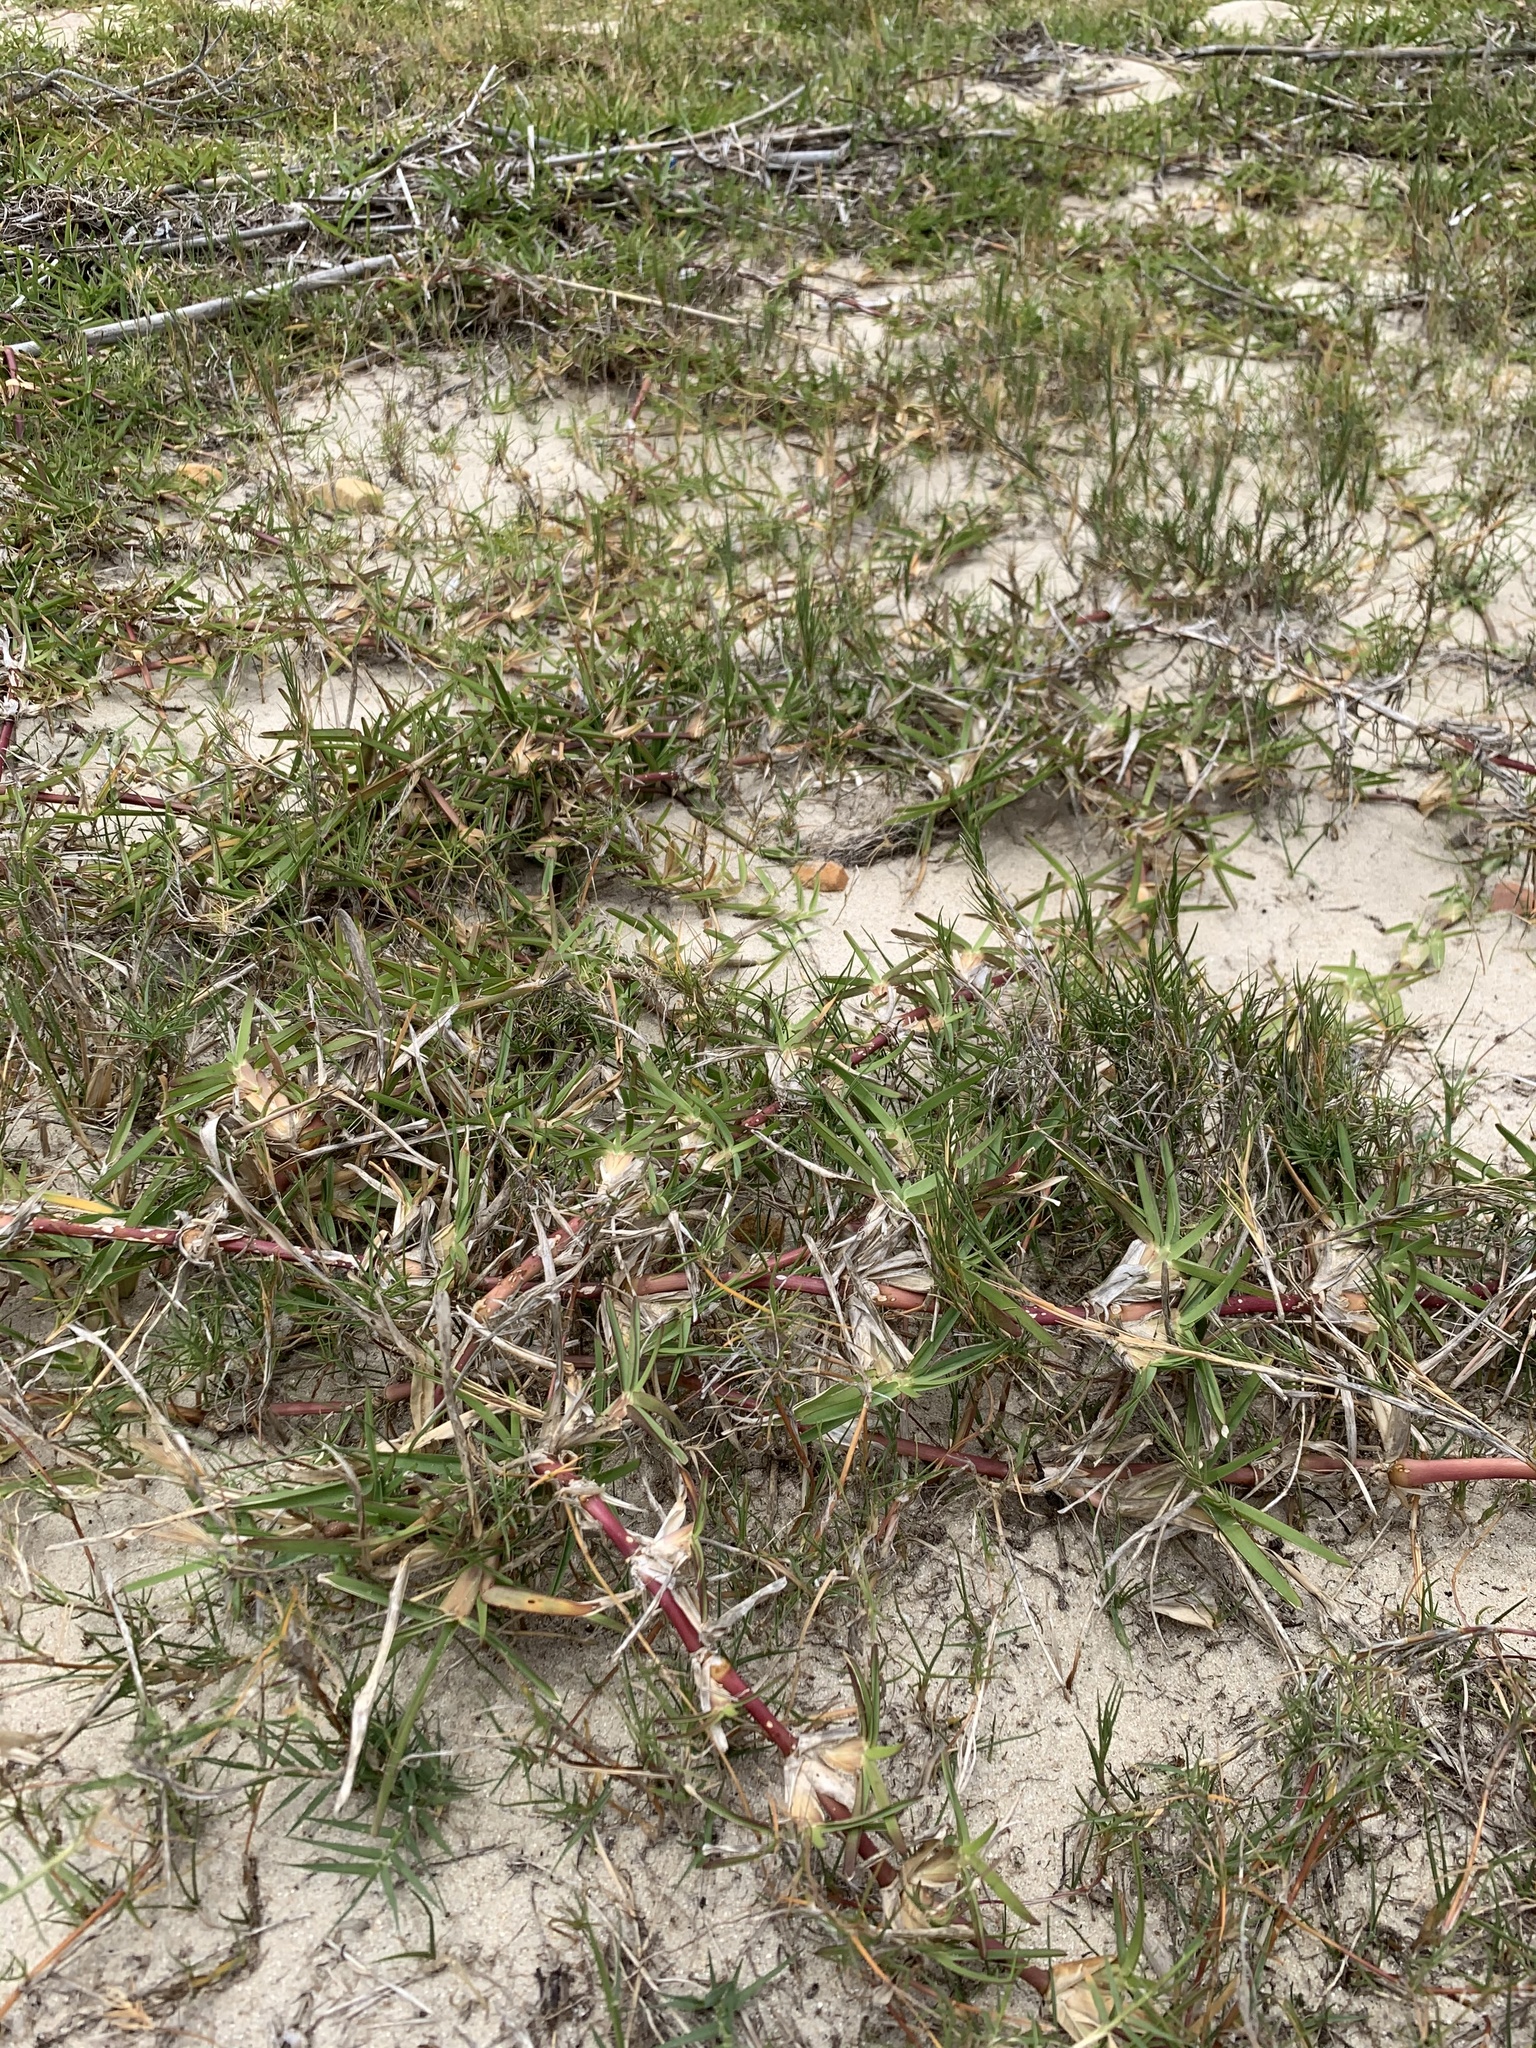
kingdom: Plantae
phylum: Tracheophyta
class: Liliopsida
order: Poales
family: Poaceae
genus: Stenotaphrum
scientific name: Stenotaphrum secundatum
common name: St. augustine grass
